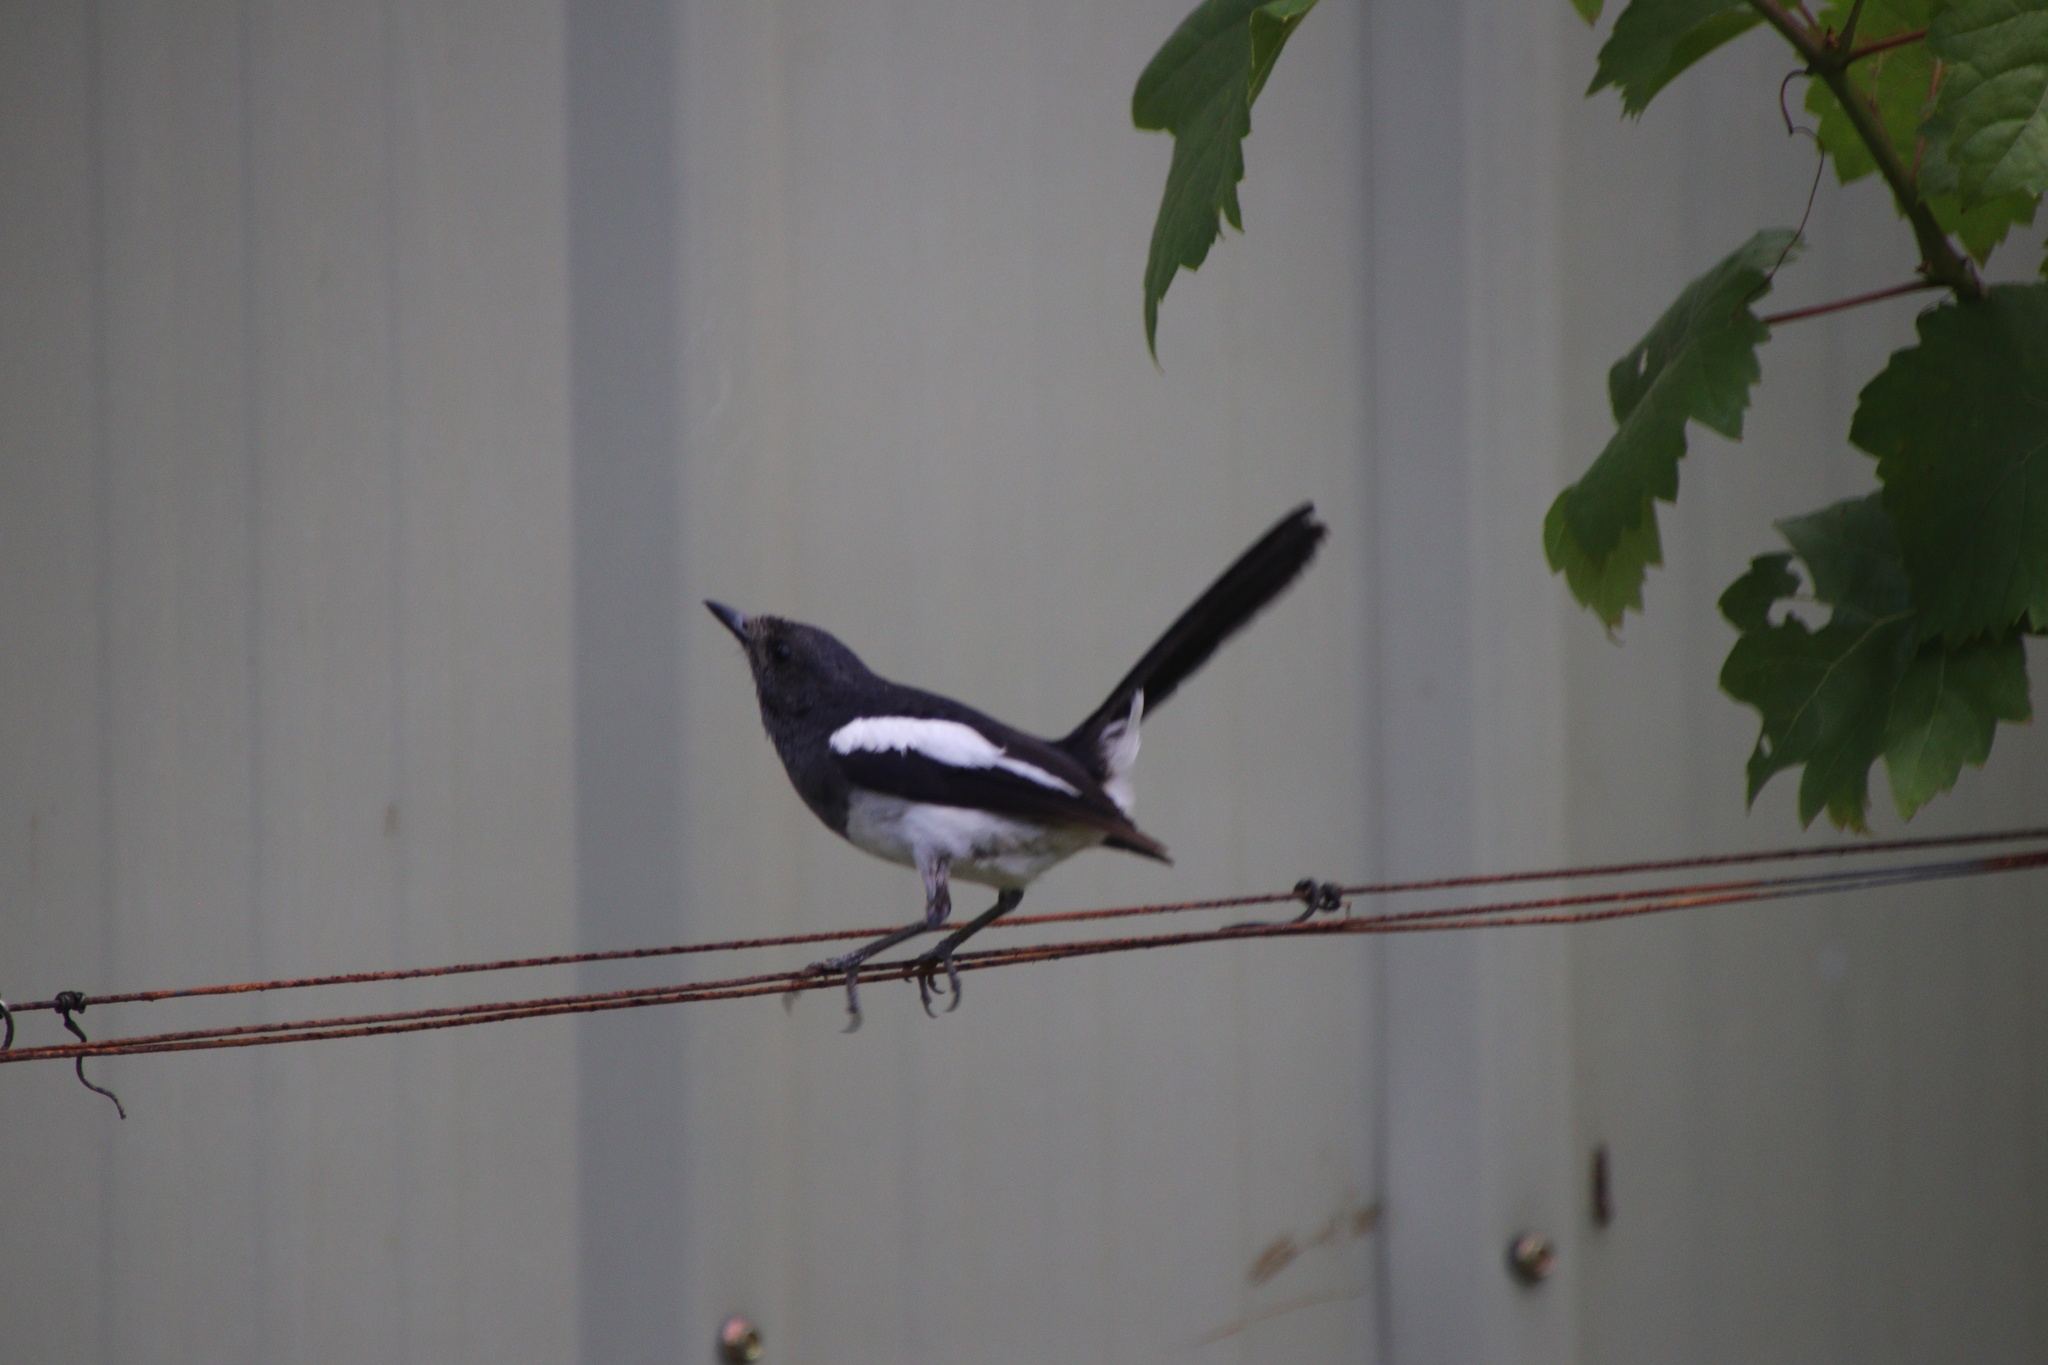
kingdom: Animalia
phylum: Chordata
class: Aves
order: Passeriformes
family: Muscicapidae
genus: Copsychus
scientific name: Copsychus mindanensis
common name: Philippine magpie-robin
